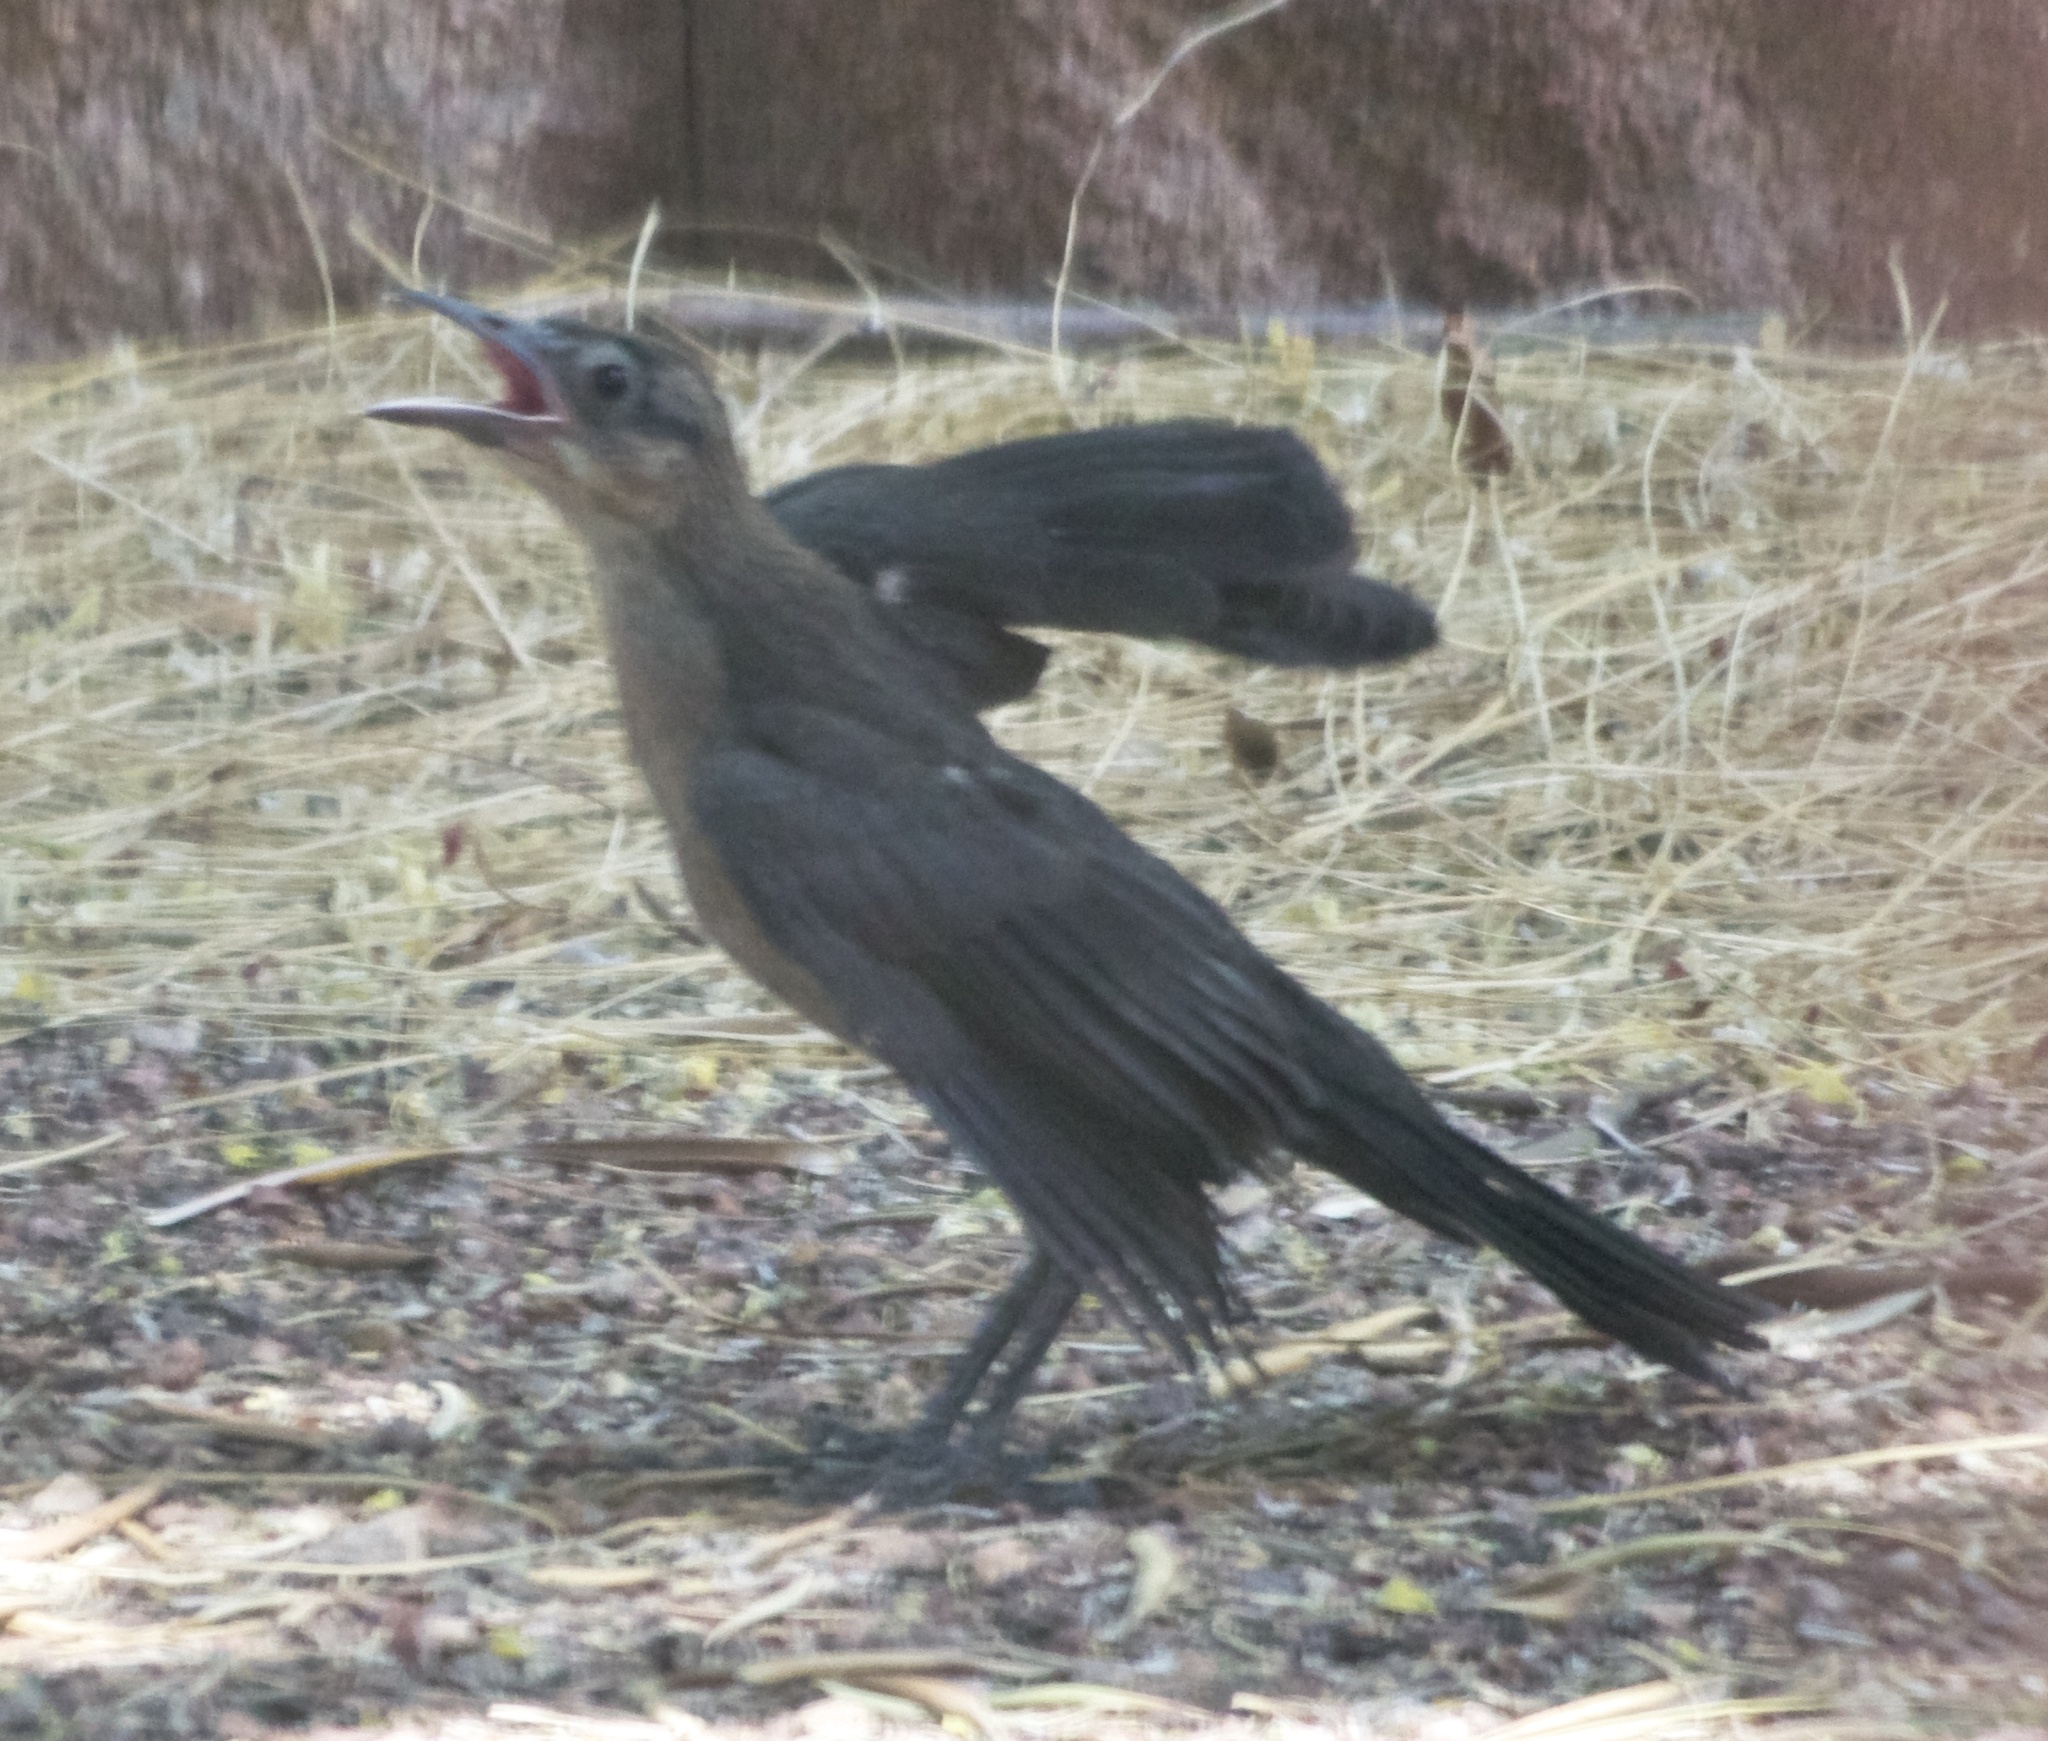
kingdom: Animalia
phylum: Chordata
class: Aves
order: Passeriformes
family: Icteridae
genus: Quiscalus
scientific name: Quiscalus mexicanus
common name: Great-tailed grackle
